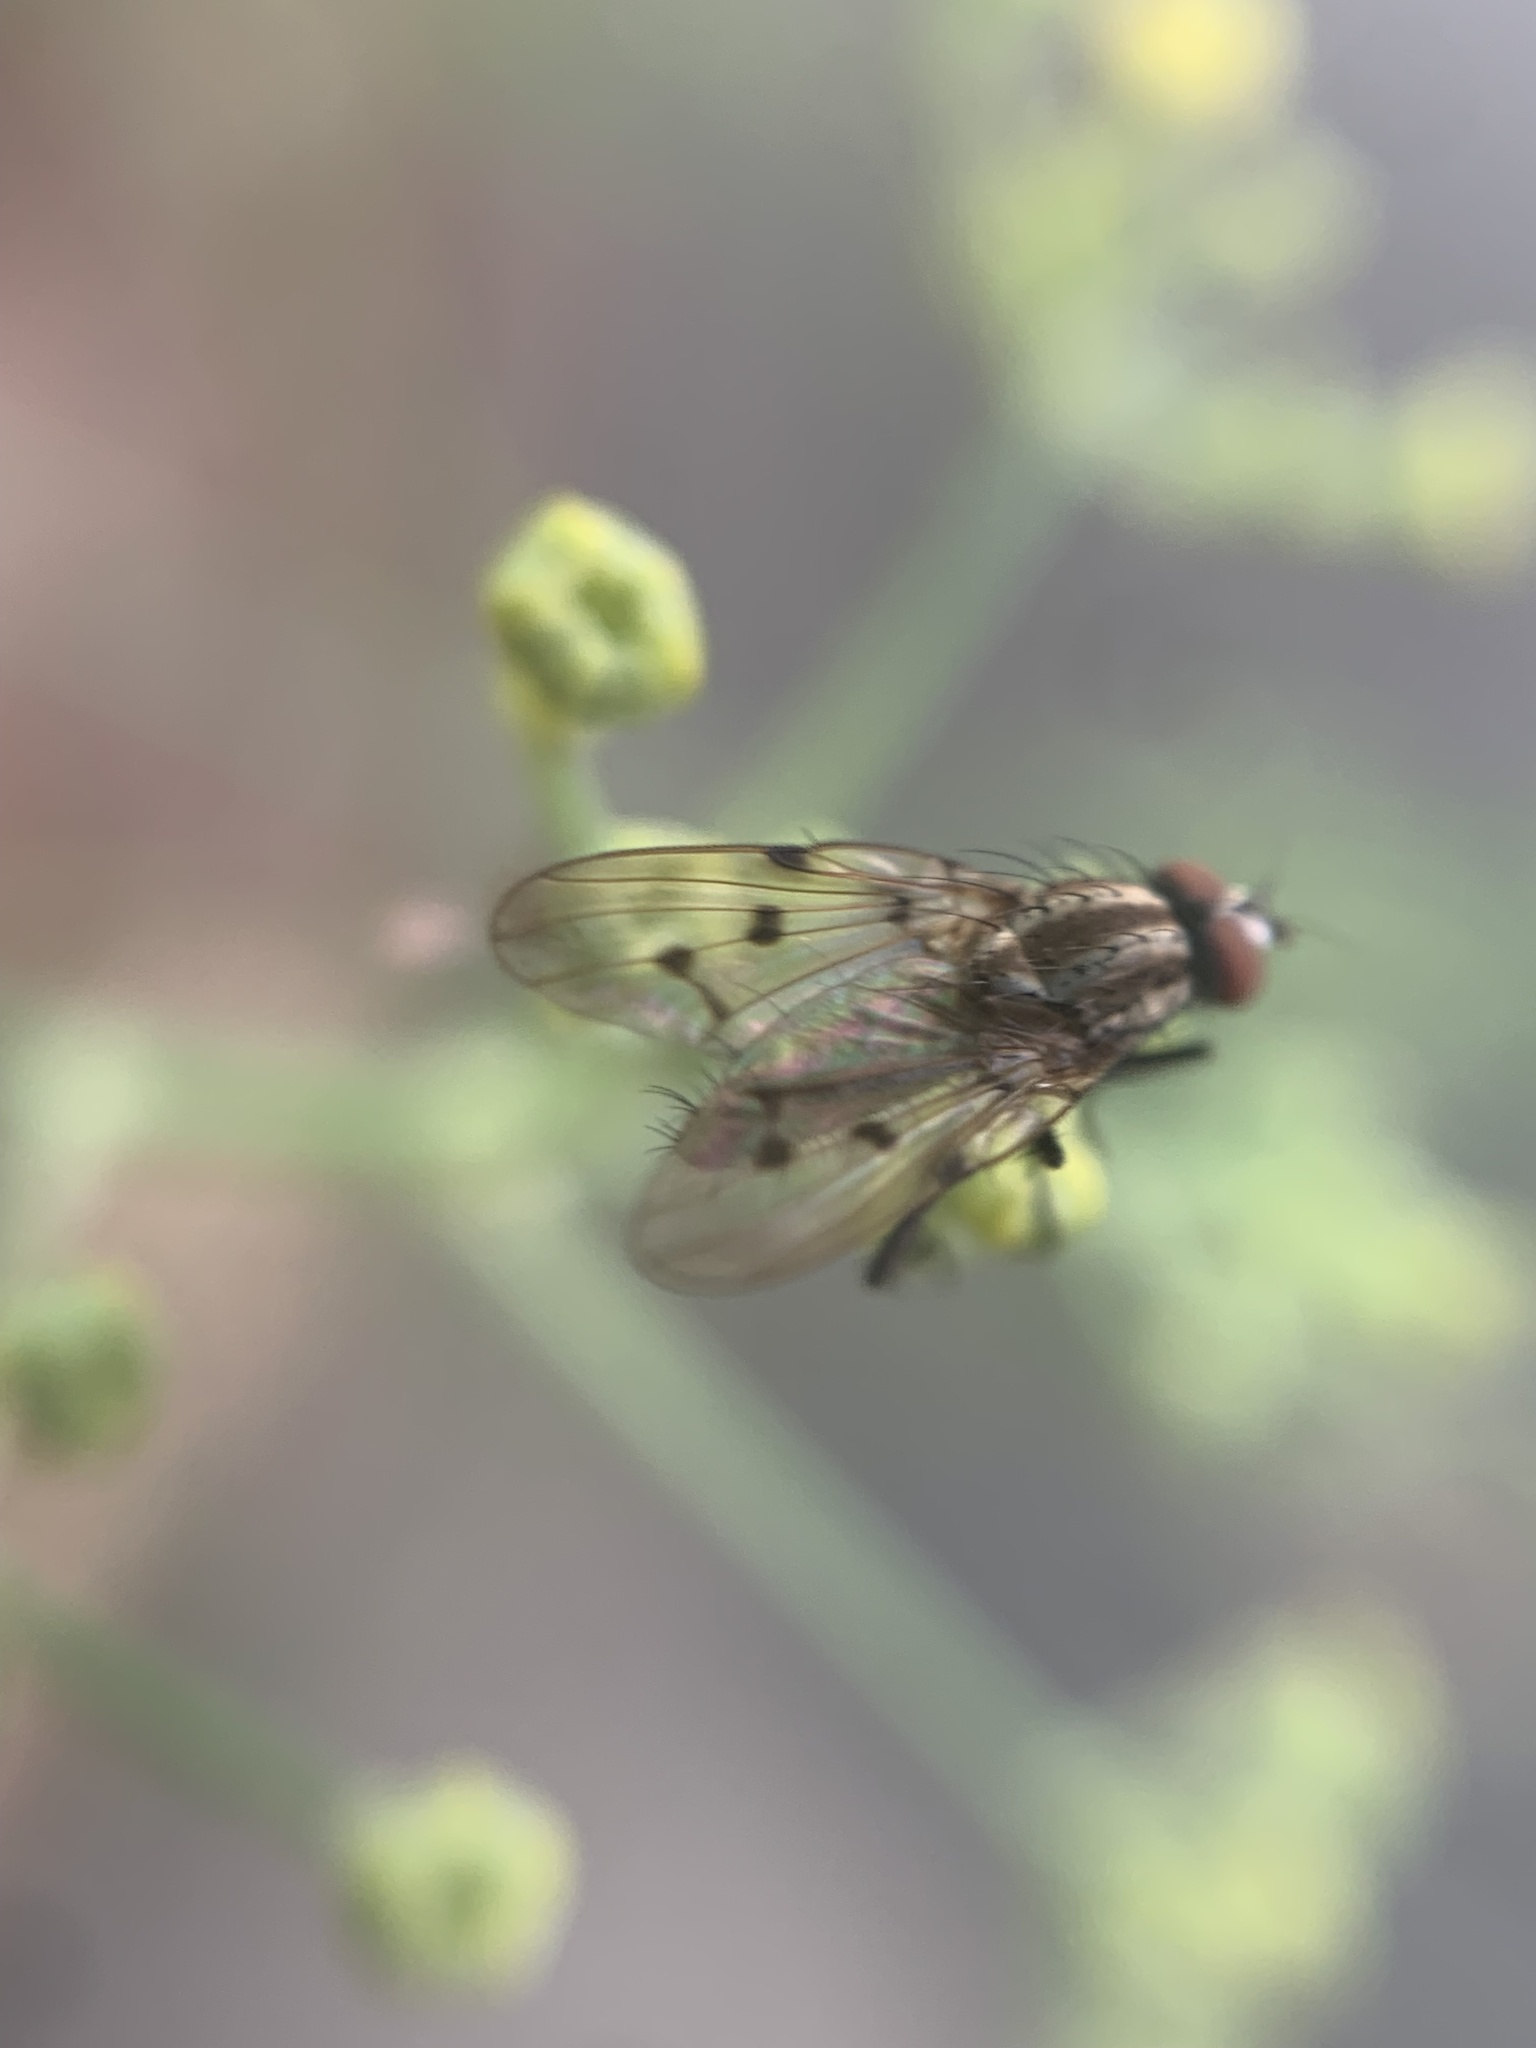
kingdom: Animalia
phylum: Arthropoda
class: Insecta
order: Diptera
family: Anthomyiidae
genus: Anthomyia
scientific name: Anthomyia punctipennis
